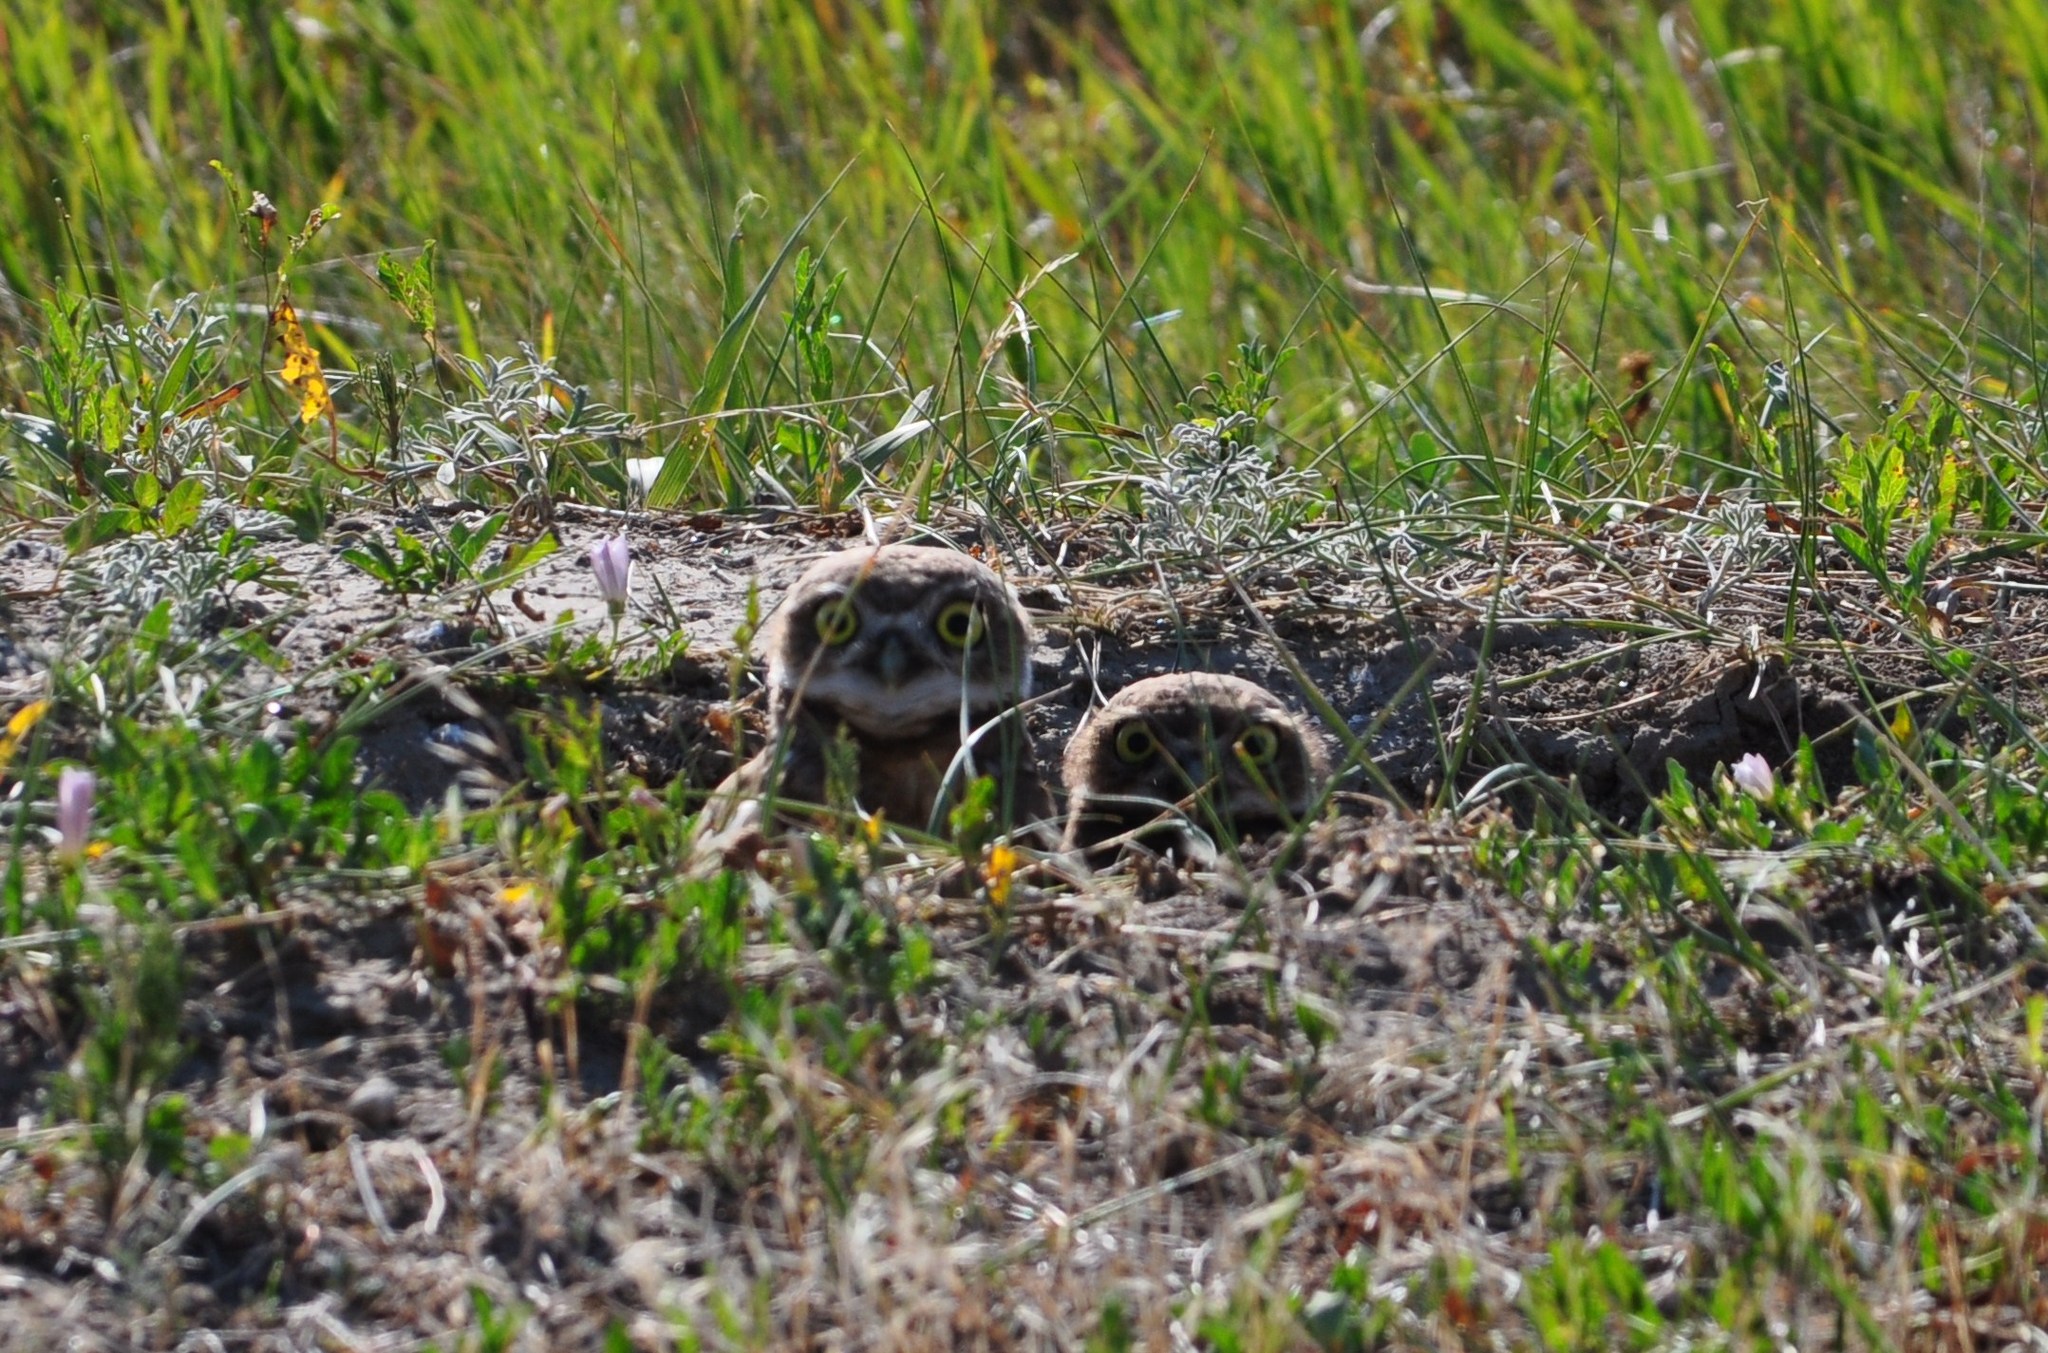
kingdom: Animalia
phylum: Chordata
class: Aves
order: Strigiformes
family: Strigidae
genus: Athene
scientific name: Athene cunicularia
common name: Burrowing owl
